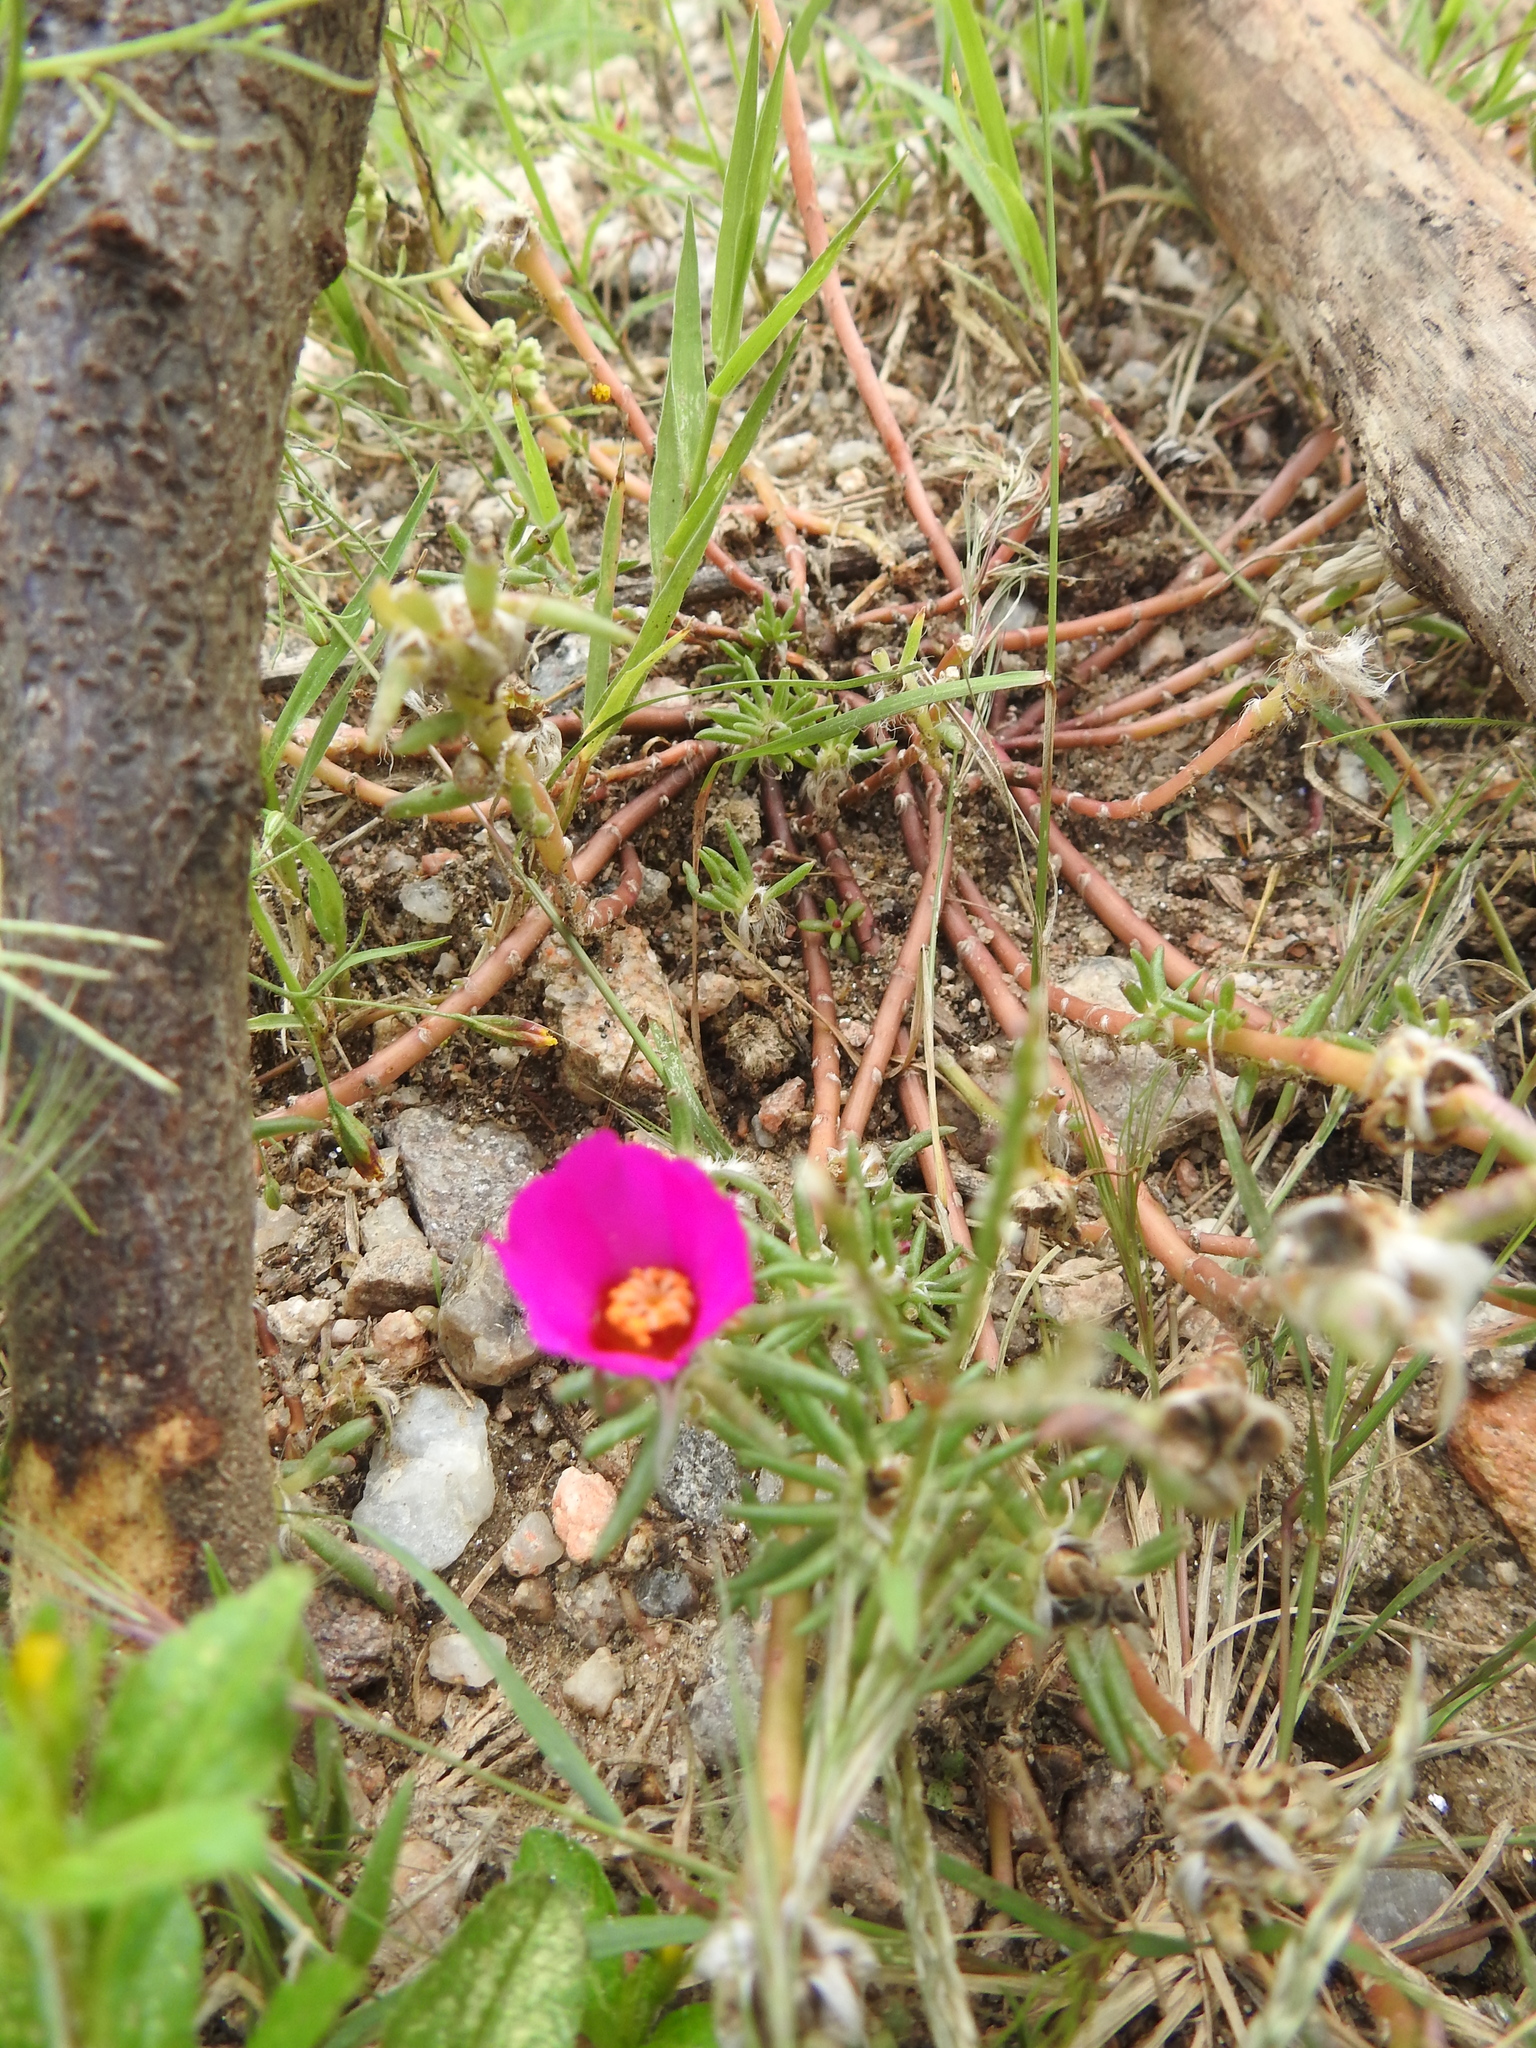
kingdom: Plantae
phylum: Tracheophyta
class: Magnoliopsida
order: Caryophyllales
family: Portulacaceae
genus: Portulaca
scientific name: Portulaca grandiflora
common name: Moss-rose
